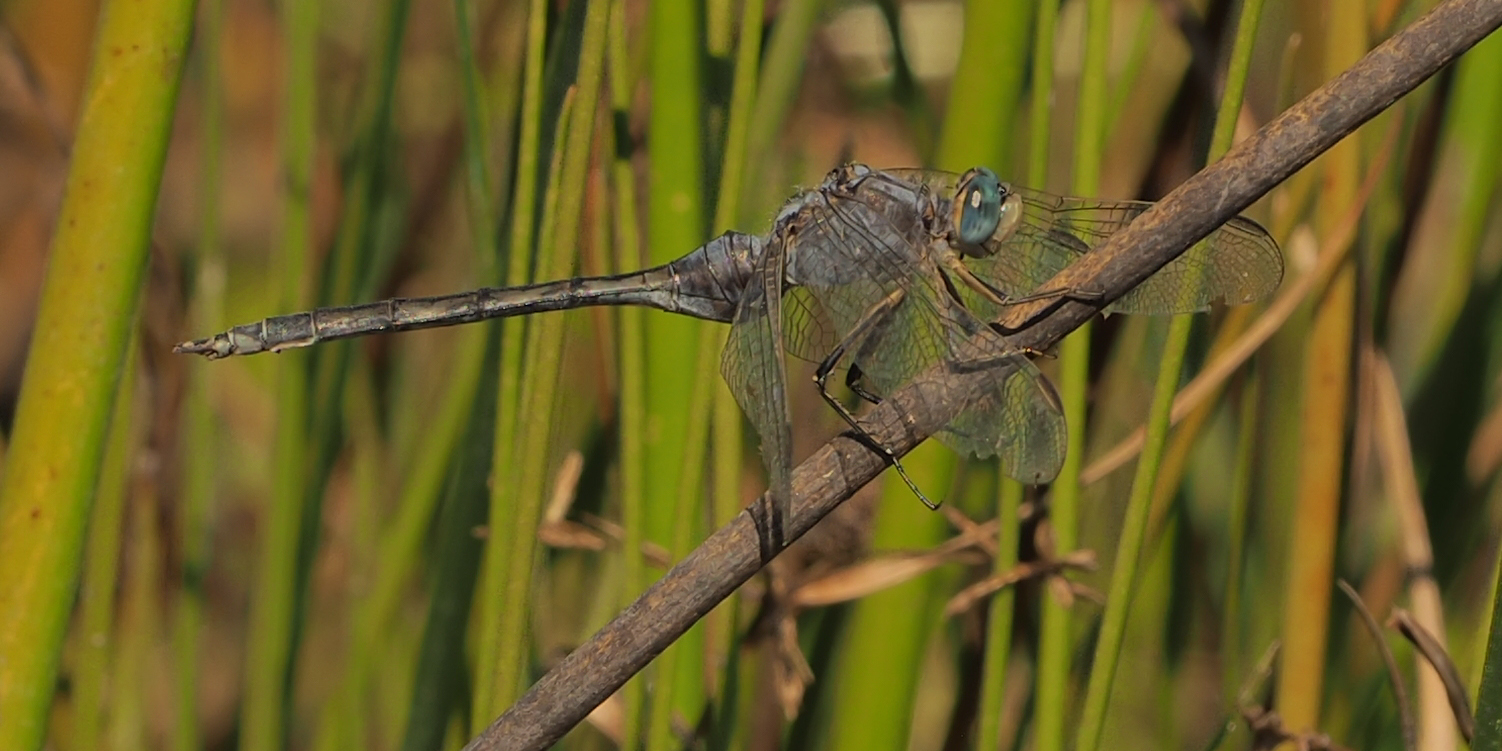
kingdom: Animalia
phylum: Arthropoda
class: Insecta
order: Odonata
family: Libellulidae
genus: Orthetrum
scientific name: Orthetrum trinacria
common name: Long skimmer
